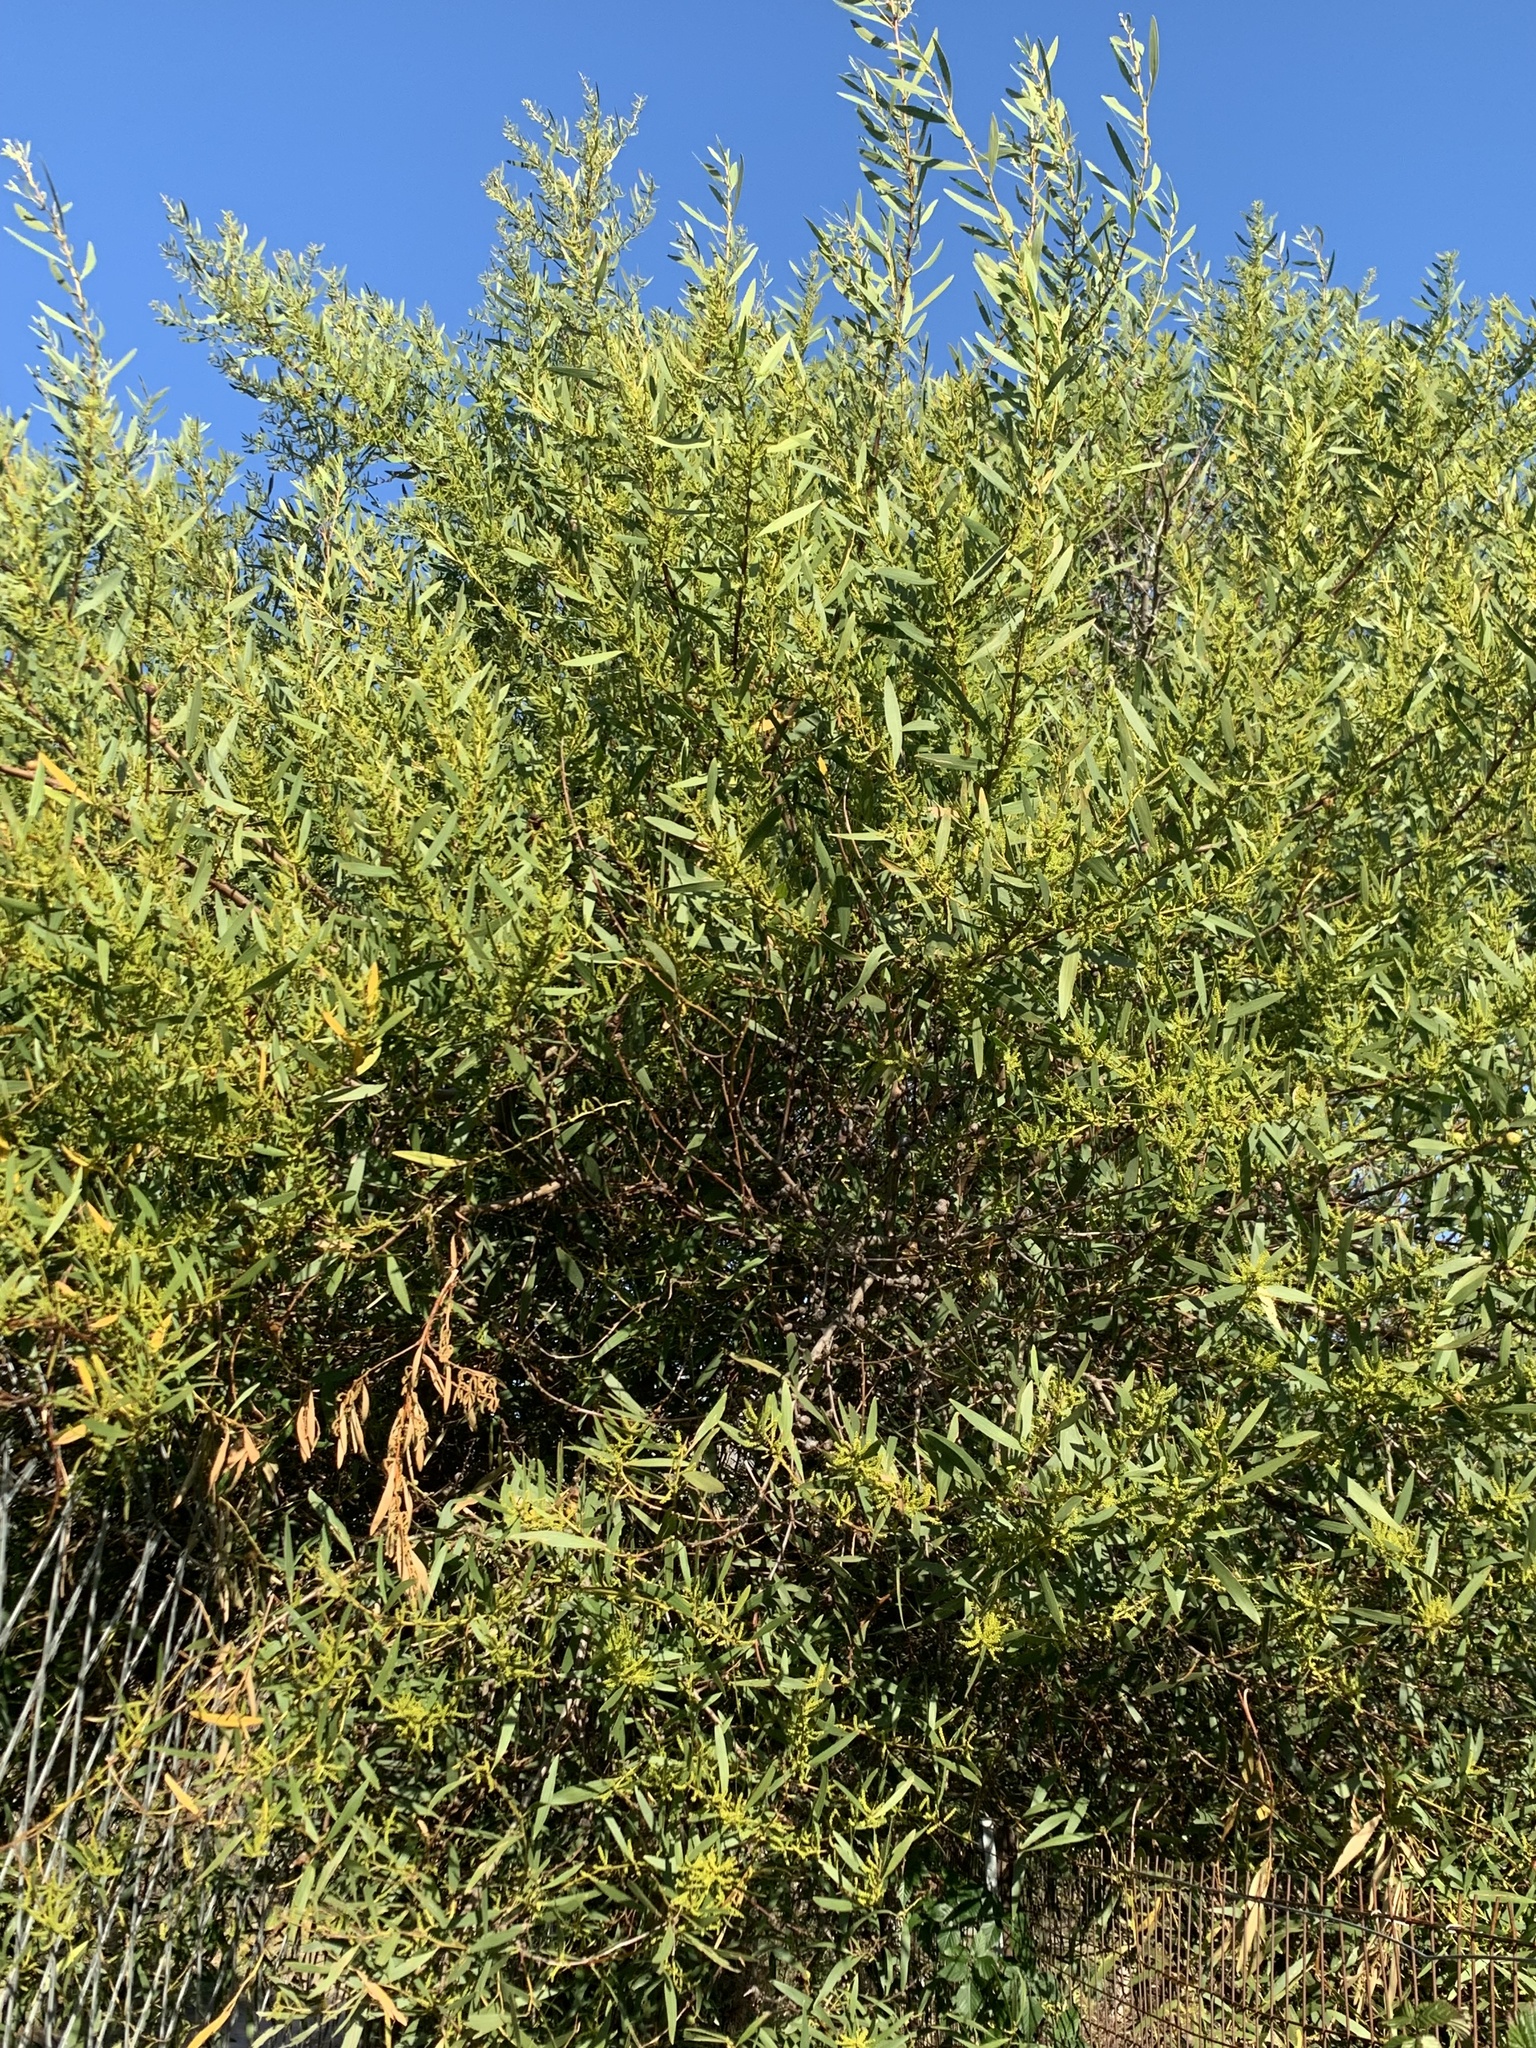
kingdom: Plantae
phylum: Tracheophyta
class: Magnoliopsida
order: Fabales
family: Fabaceae
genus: Acacia
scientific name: Acacia longifolia
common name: Sydney golden wattle
